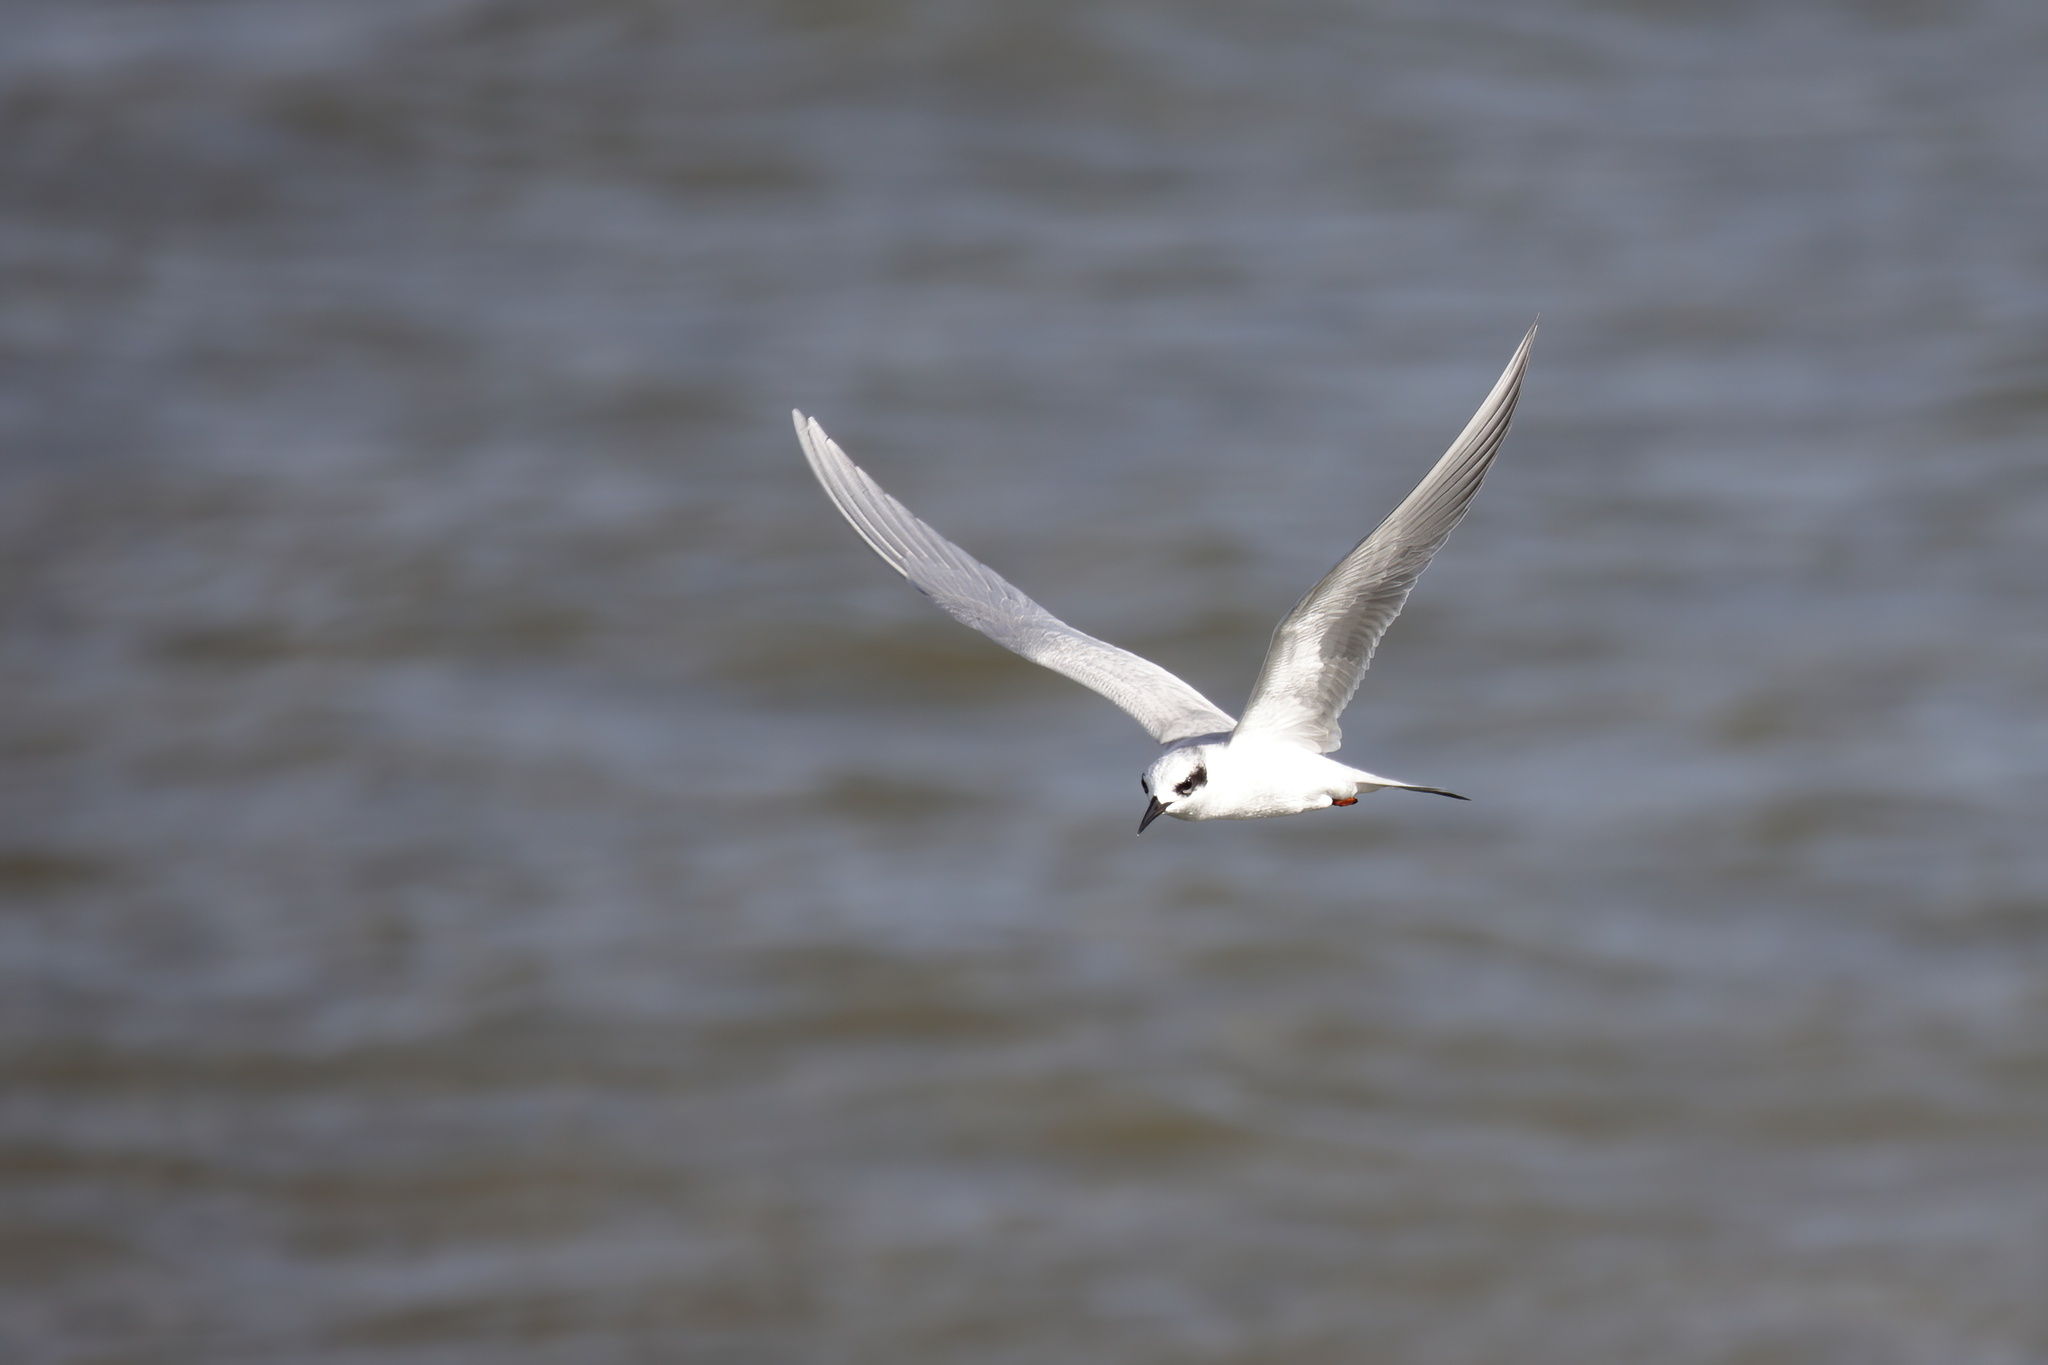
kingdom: Animalia
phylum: Chordata
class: Aves
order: Charadriiformes
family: Laridae
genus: Sterna
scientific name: Sterna forsteri
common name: Forster's tern
